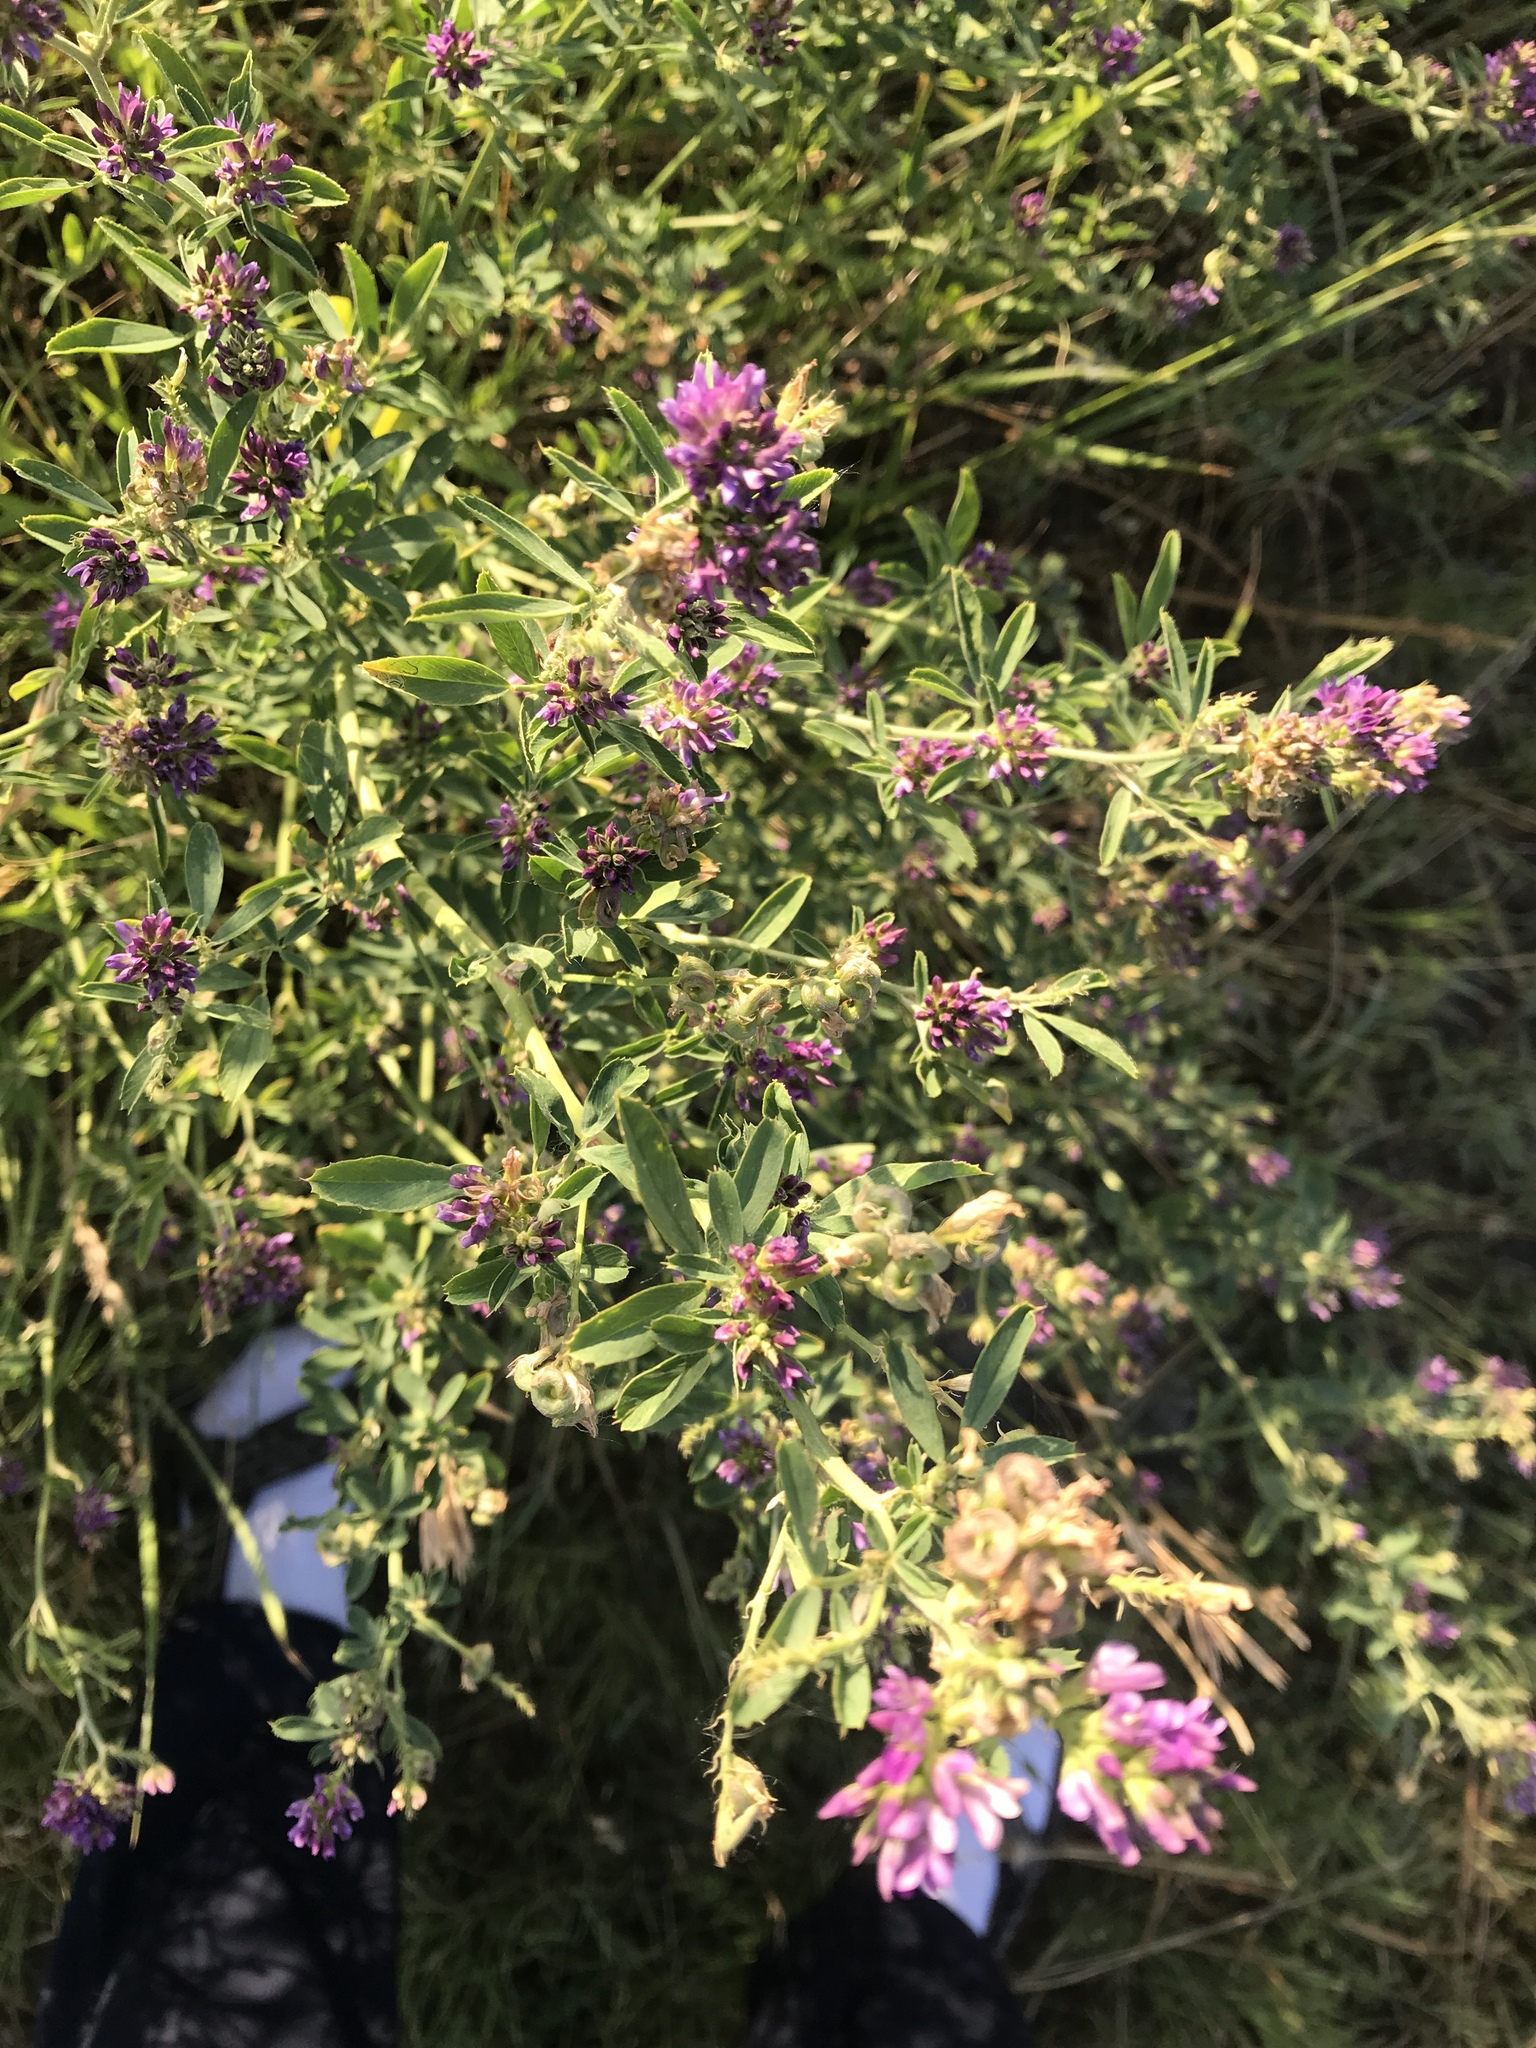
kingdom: Plantae
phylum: Tracheophyta
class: Magnoliopsida
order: Fabales
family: Fabaceae
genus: Medicago
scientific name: Medicago sativa
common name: Alfalfa
